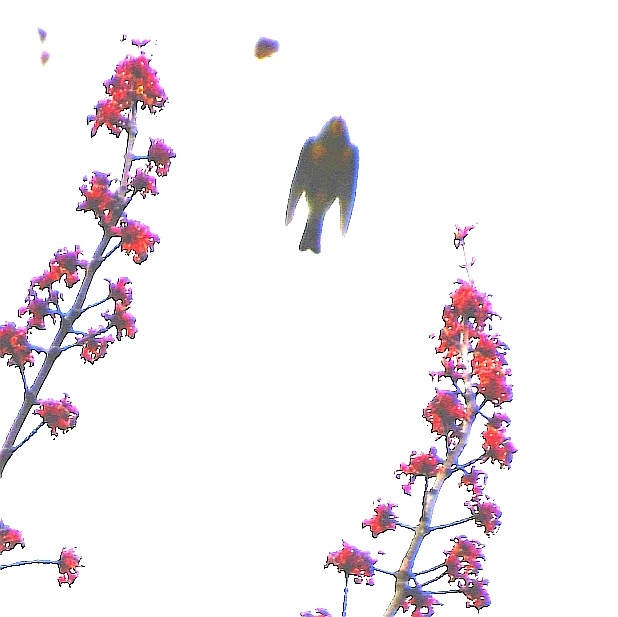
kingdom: Animalia
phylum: Chordata
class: Aves
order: Passeriformes
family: Parulidae
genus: Setophaga
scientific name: Setophaga tigrina
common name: Cape may warbler
